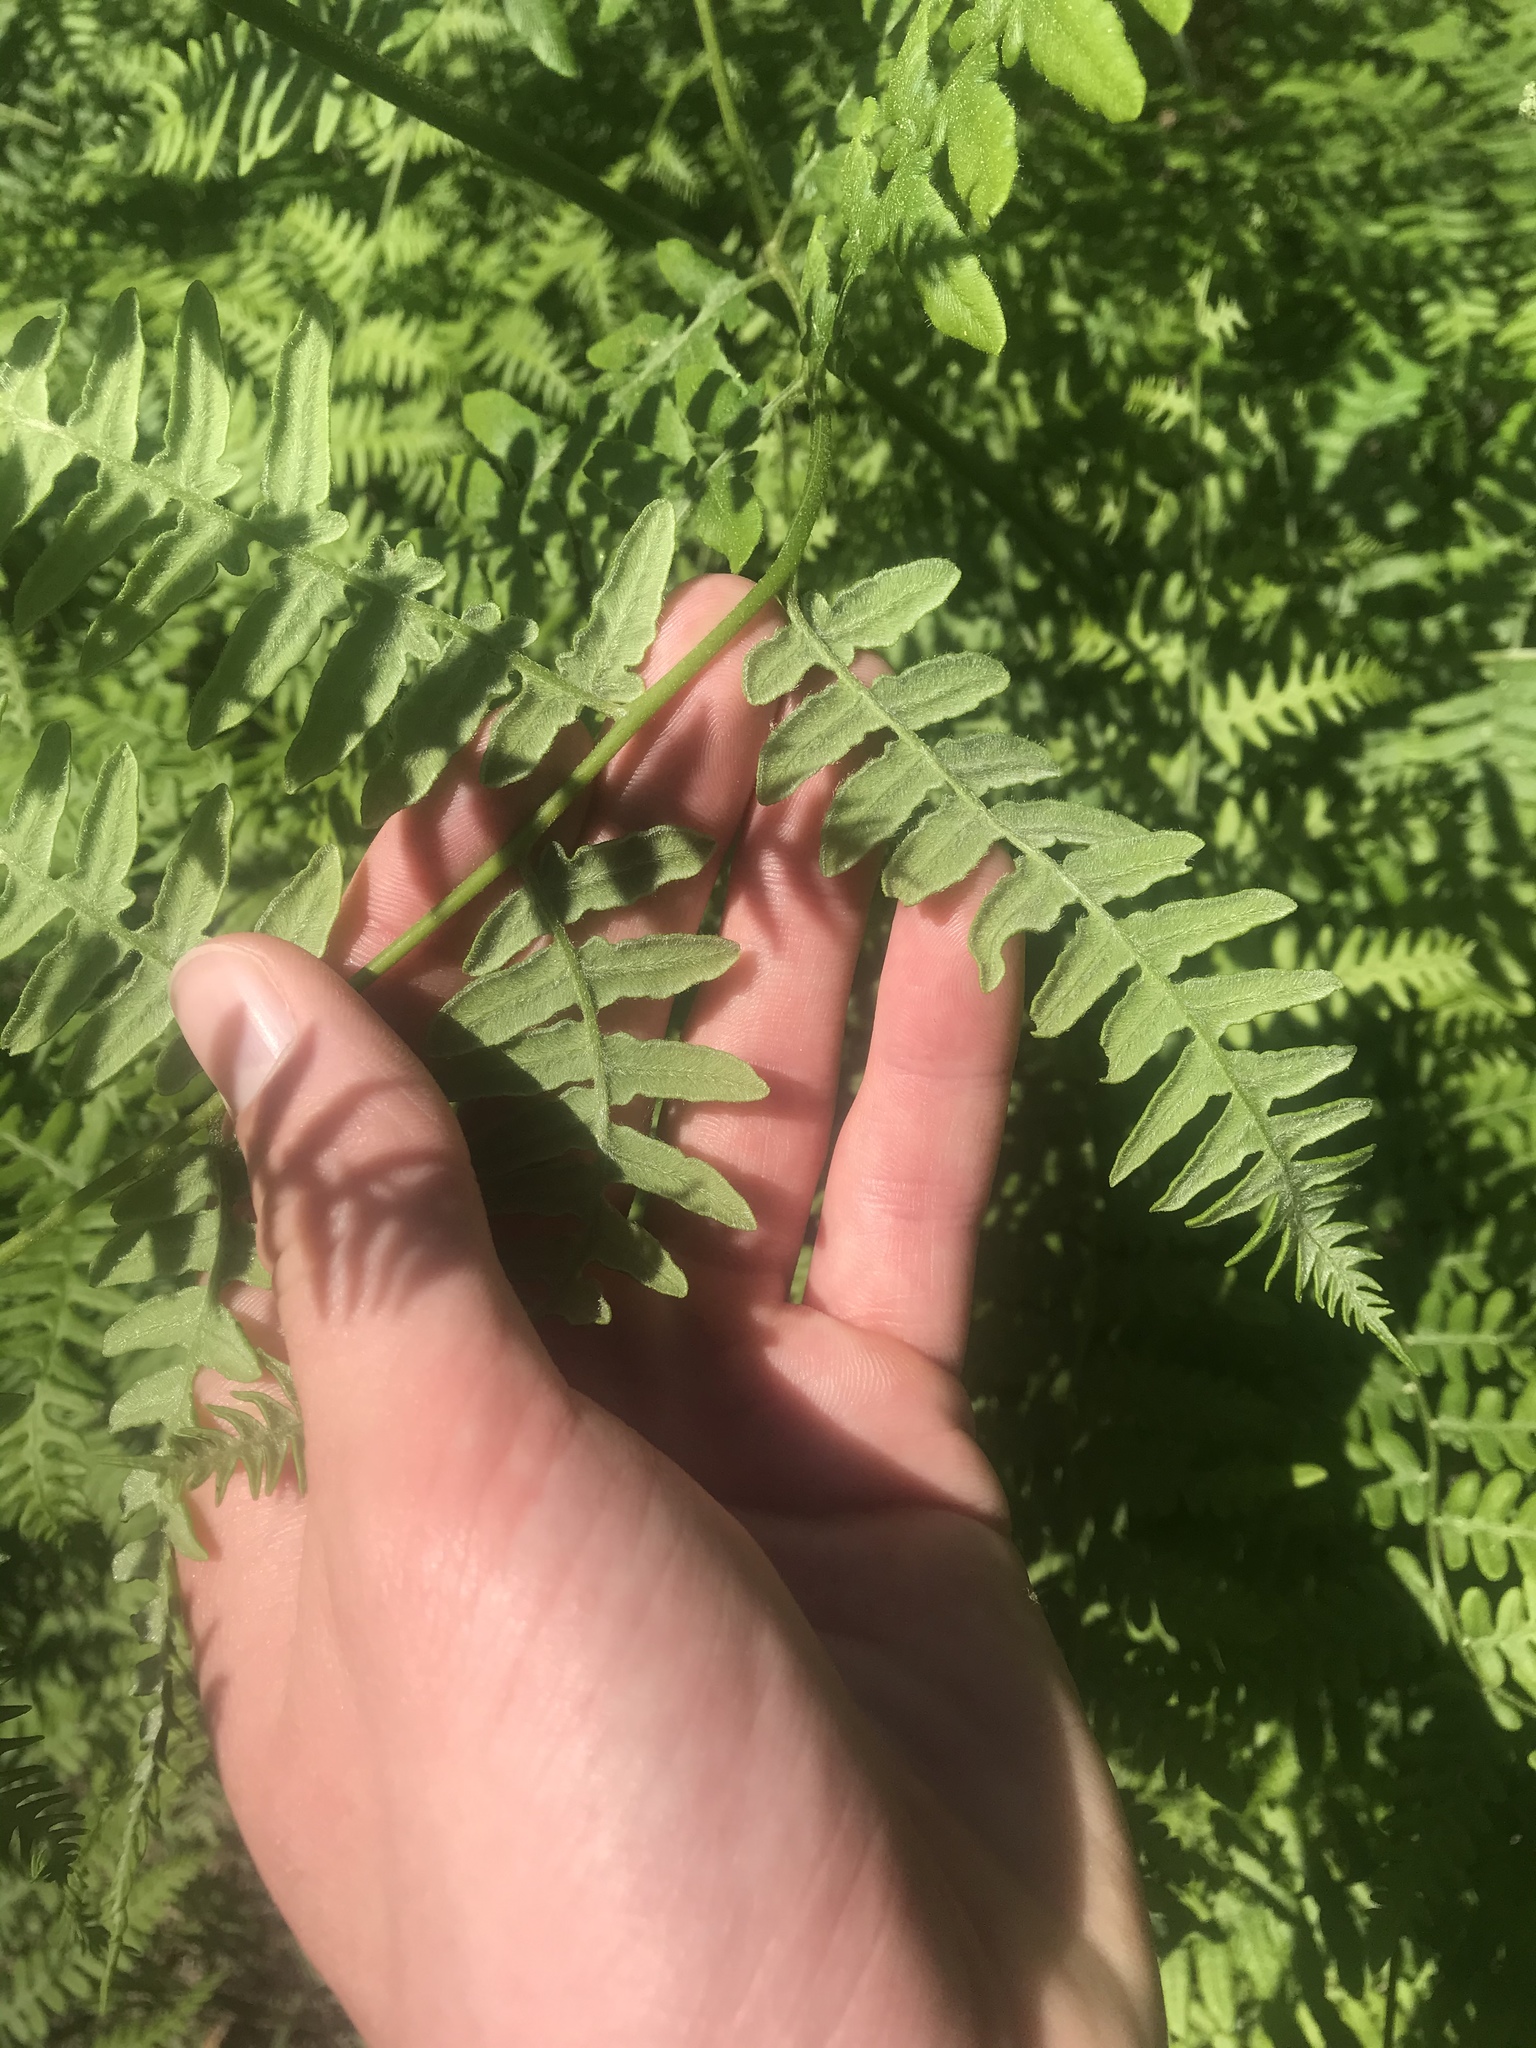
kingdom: Plantae
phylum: Tracheophyta
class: Polypodiopsida
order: Polypodiales
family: Dennstaedtiaceae
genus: Pteridium
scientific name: Pteridium aquilinum
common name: Bracken
